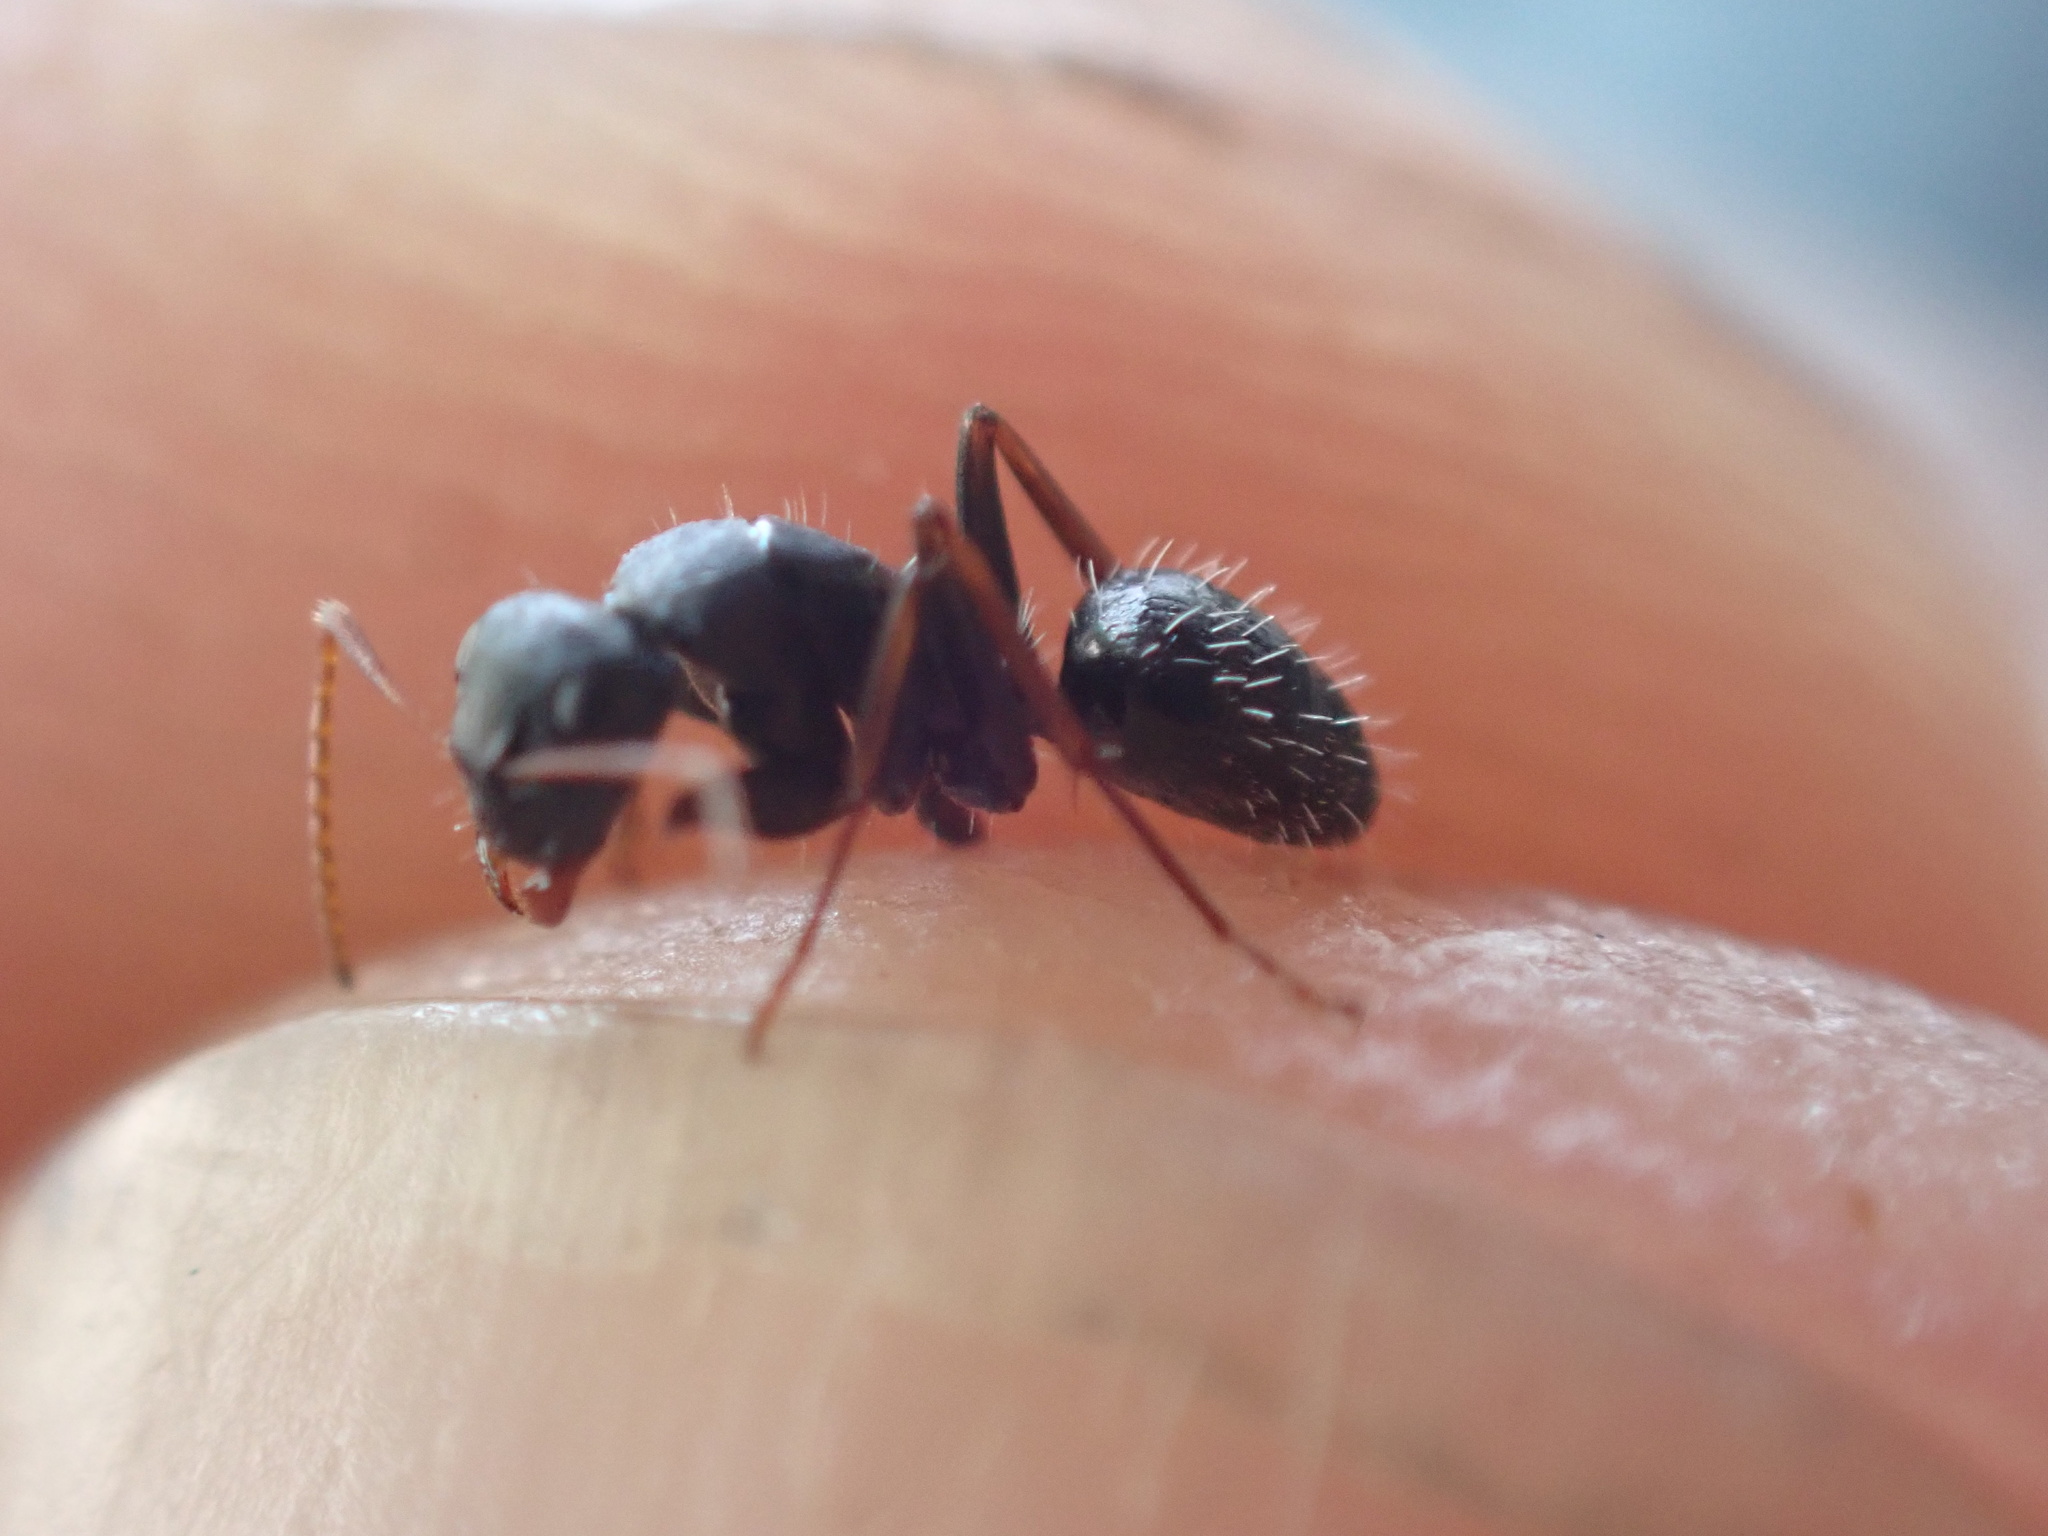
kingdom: Animalia
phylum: Arthropoda
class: Insecta
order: Hymenoptera
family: Formicidae
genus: Camponotus
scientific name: Camponotus auropubens
